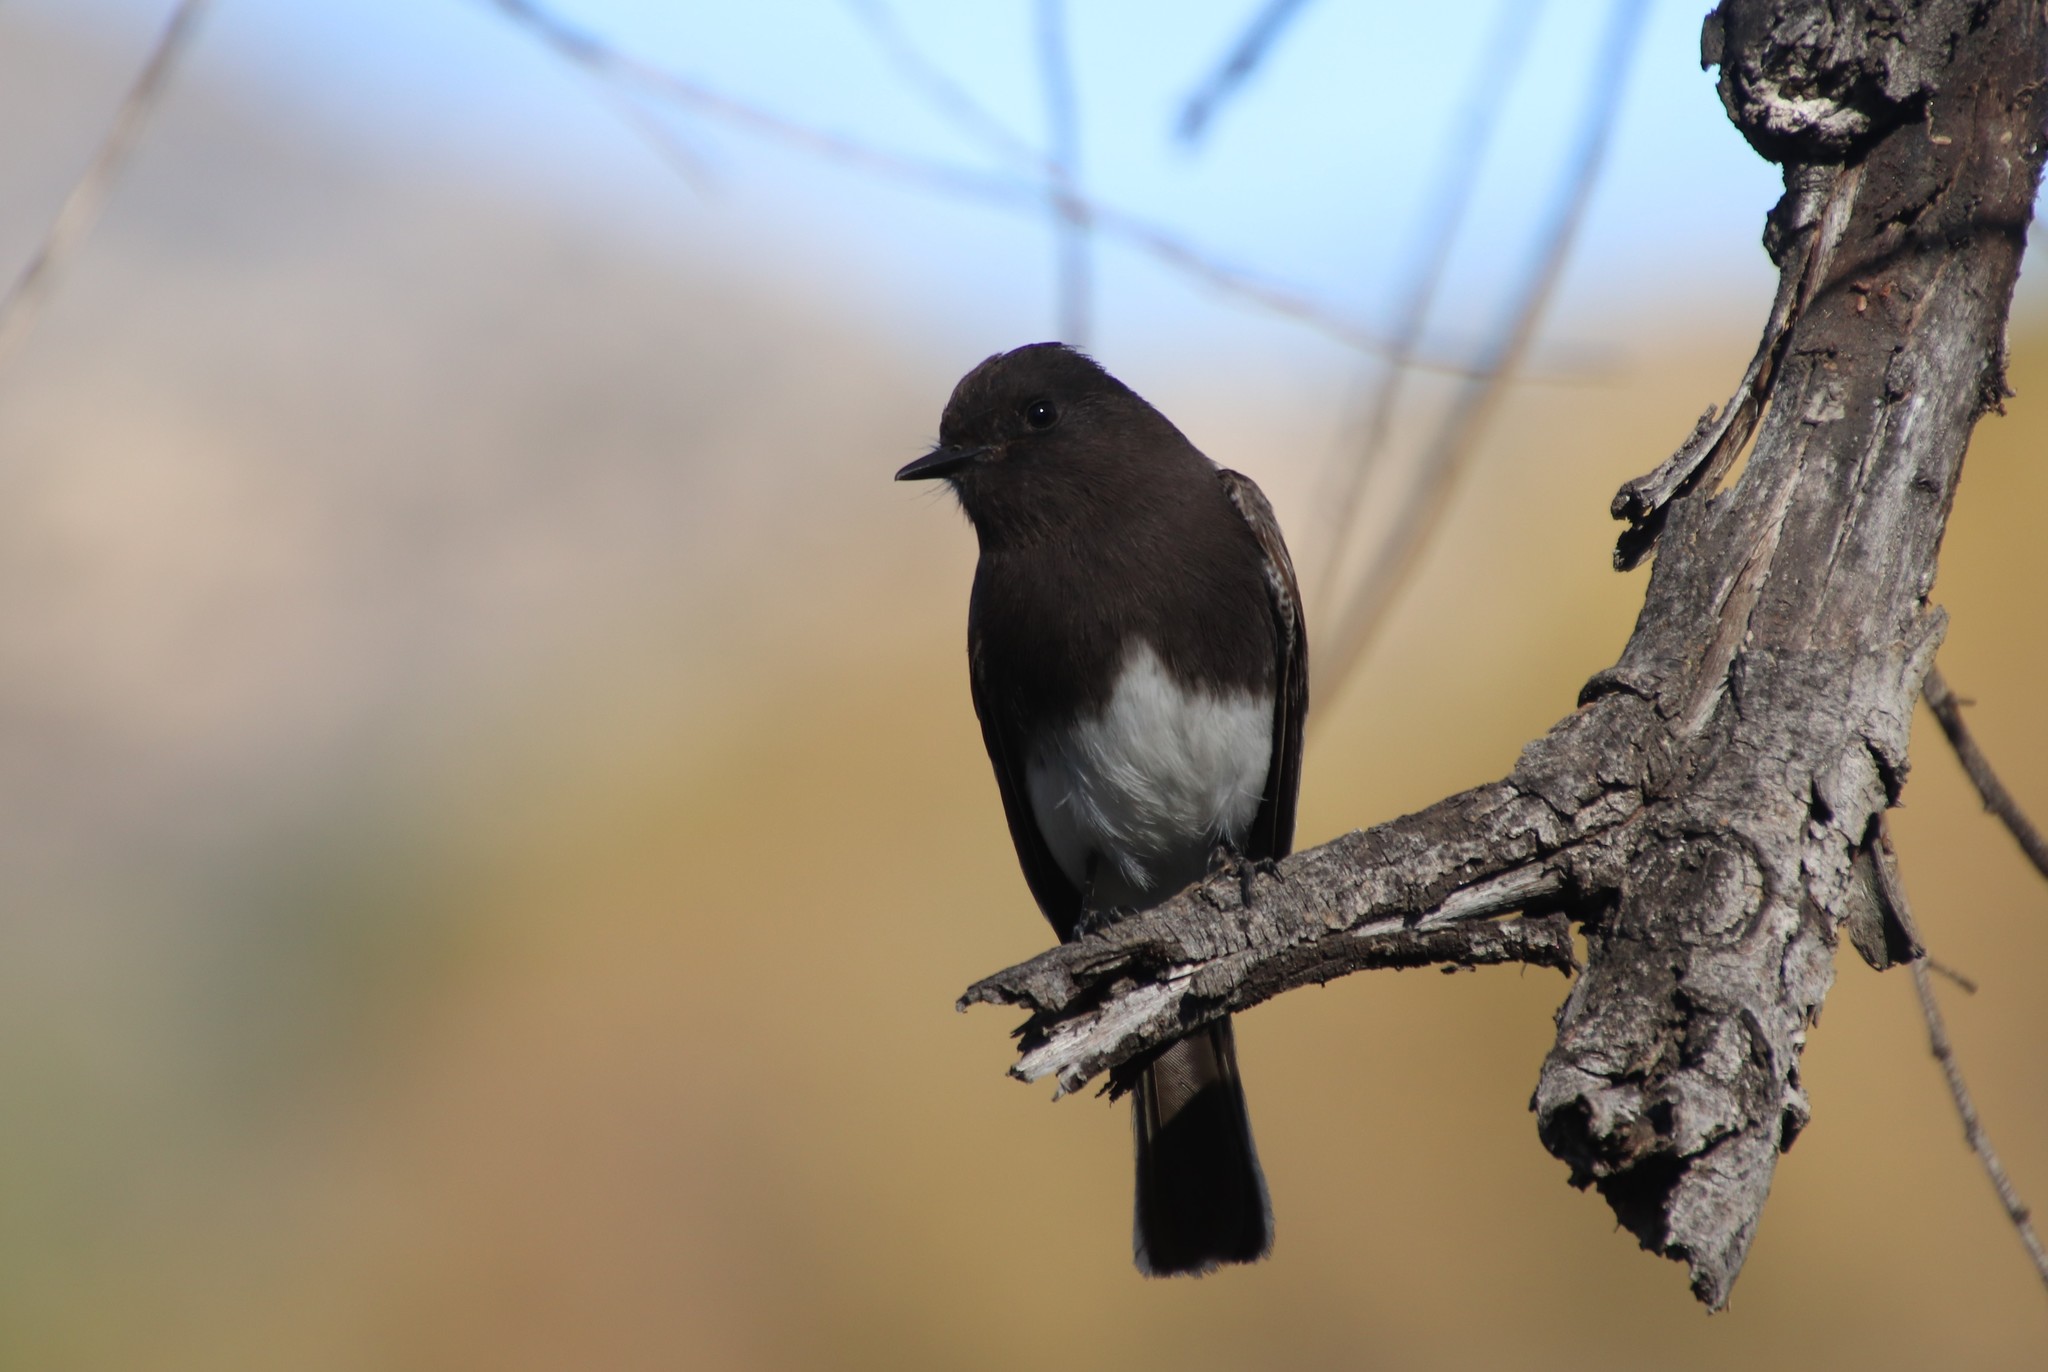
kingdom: Animalia
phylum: Chordata
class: Aves
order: Passeriformes
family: Tyrannidae
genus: Sayornis
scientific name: Sayornis nigricans
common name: Black phoebe
